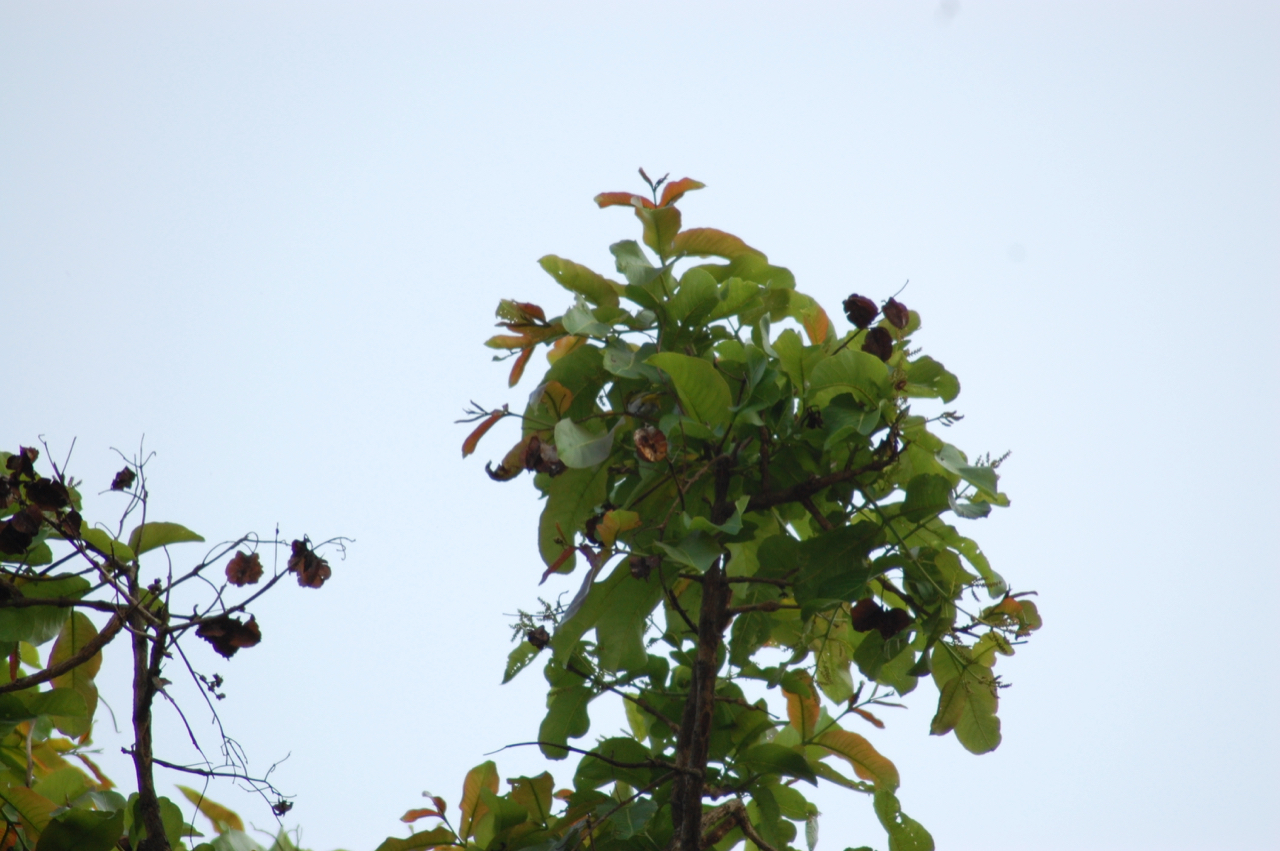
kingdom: Plantae
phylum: Tracheophyta
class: Magnoliopsida
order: Myrtales
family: Combretaceae
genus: Terminalia
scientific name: Terminalia arjuna
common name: Arjun
